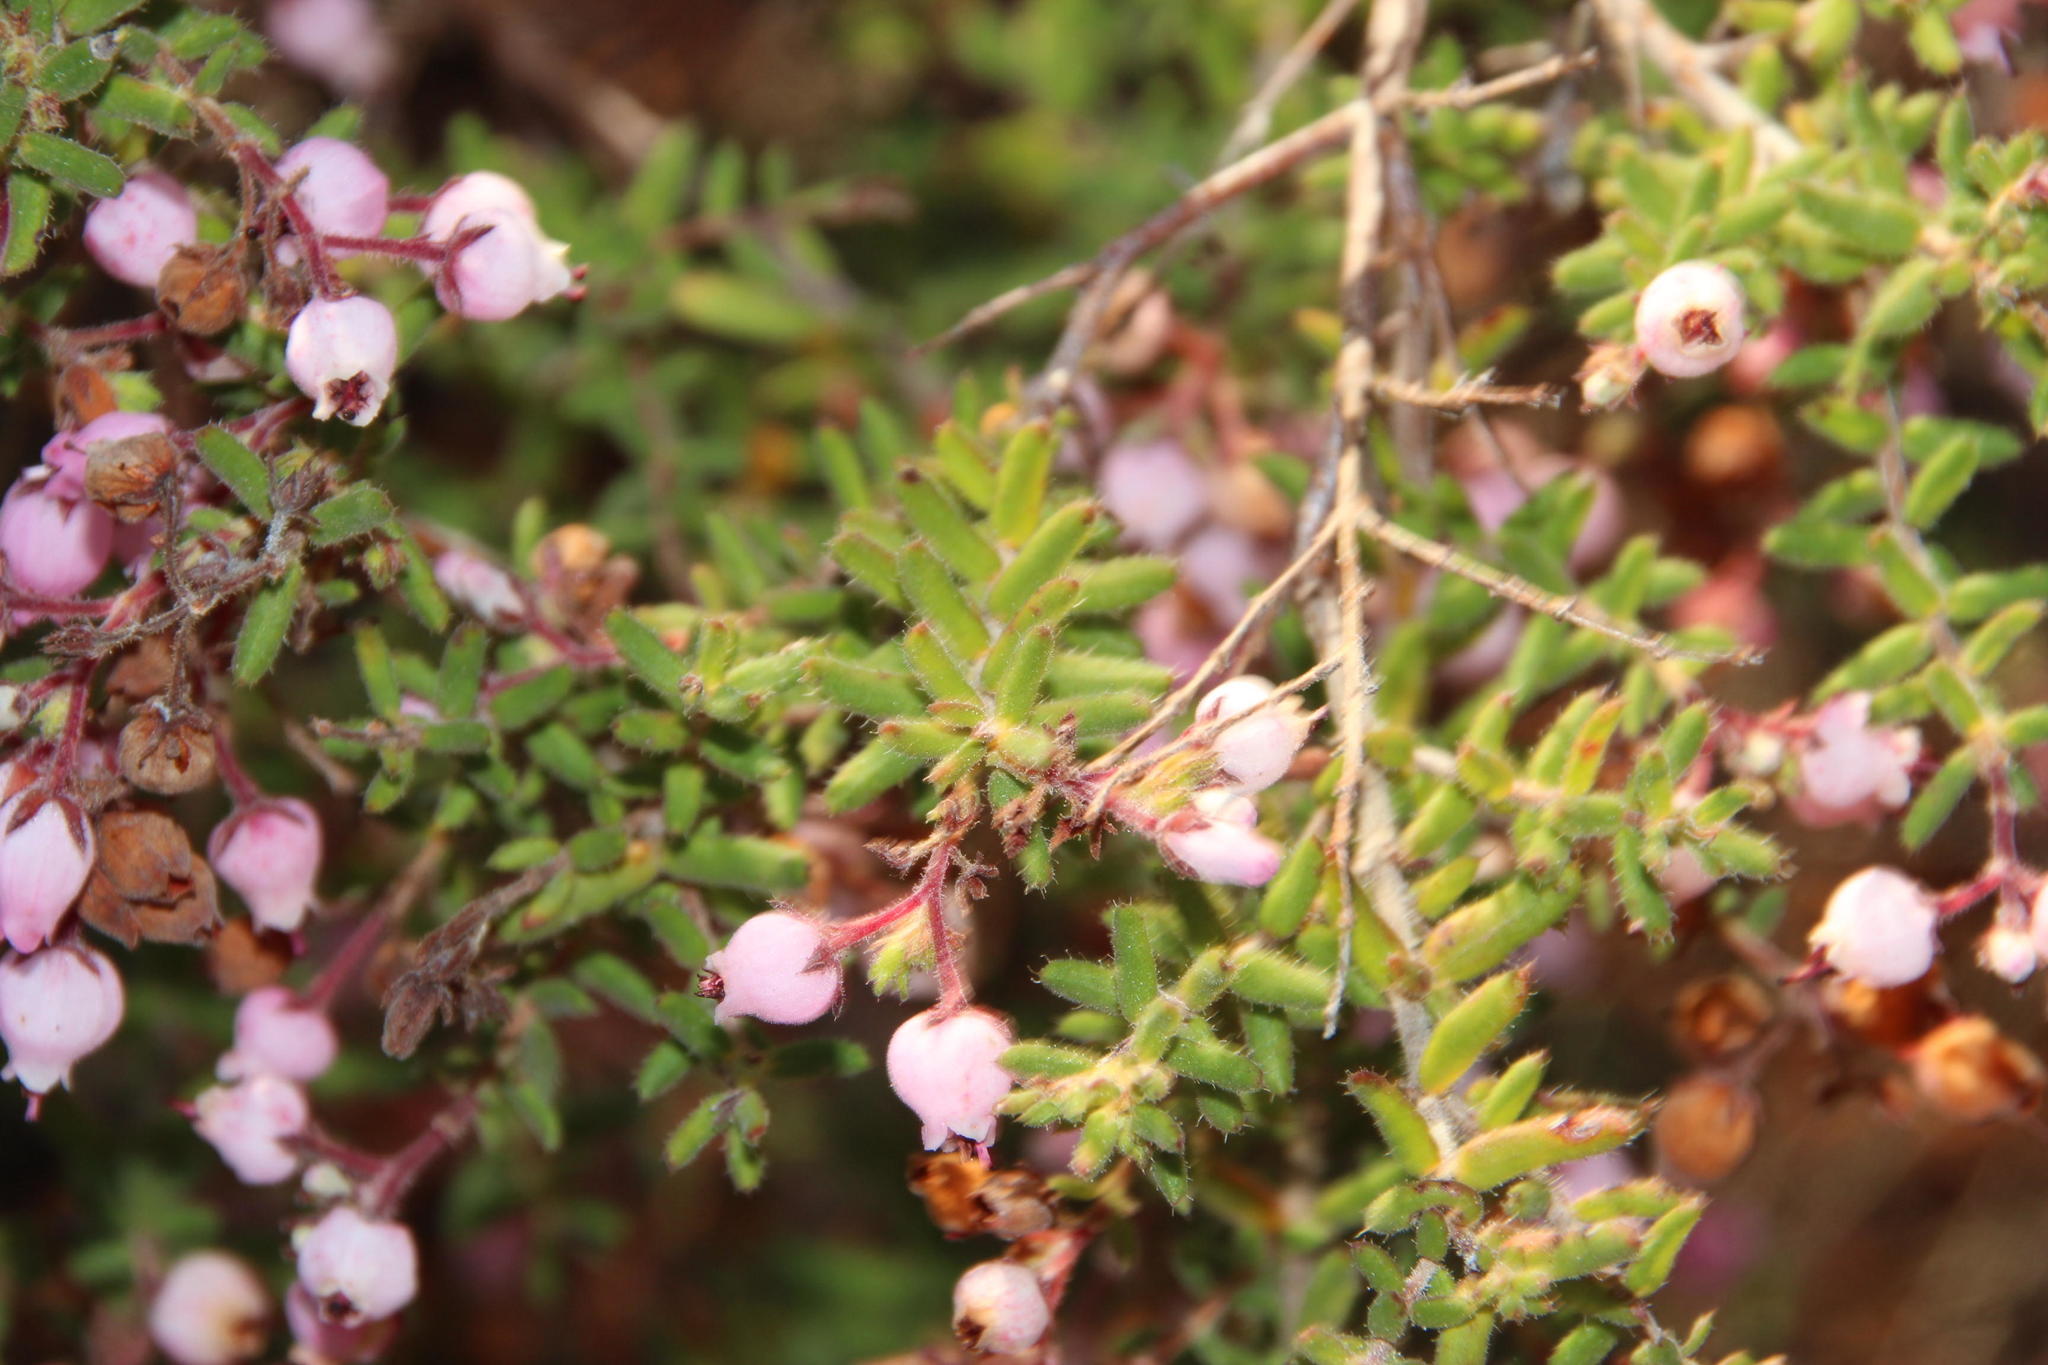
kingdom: Plantae
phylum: Tracheophyta
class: Magnoliopsida
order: Ericales
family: Ericaceae
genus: Erica
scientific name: Erica hirta
